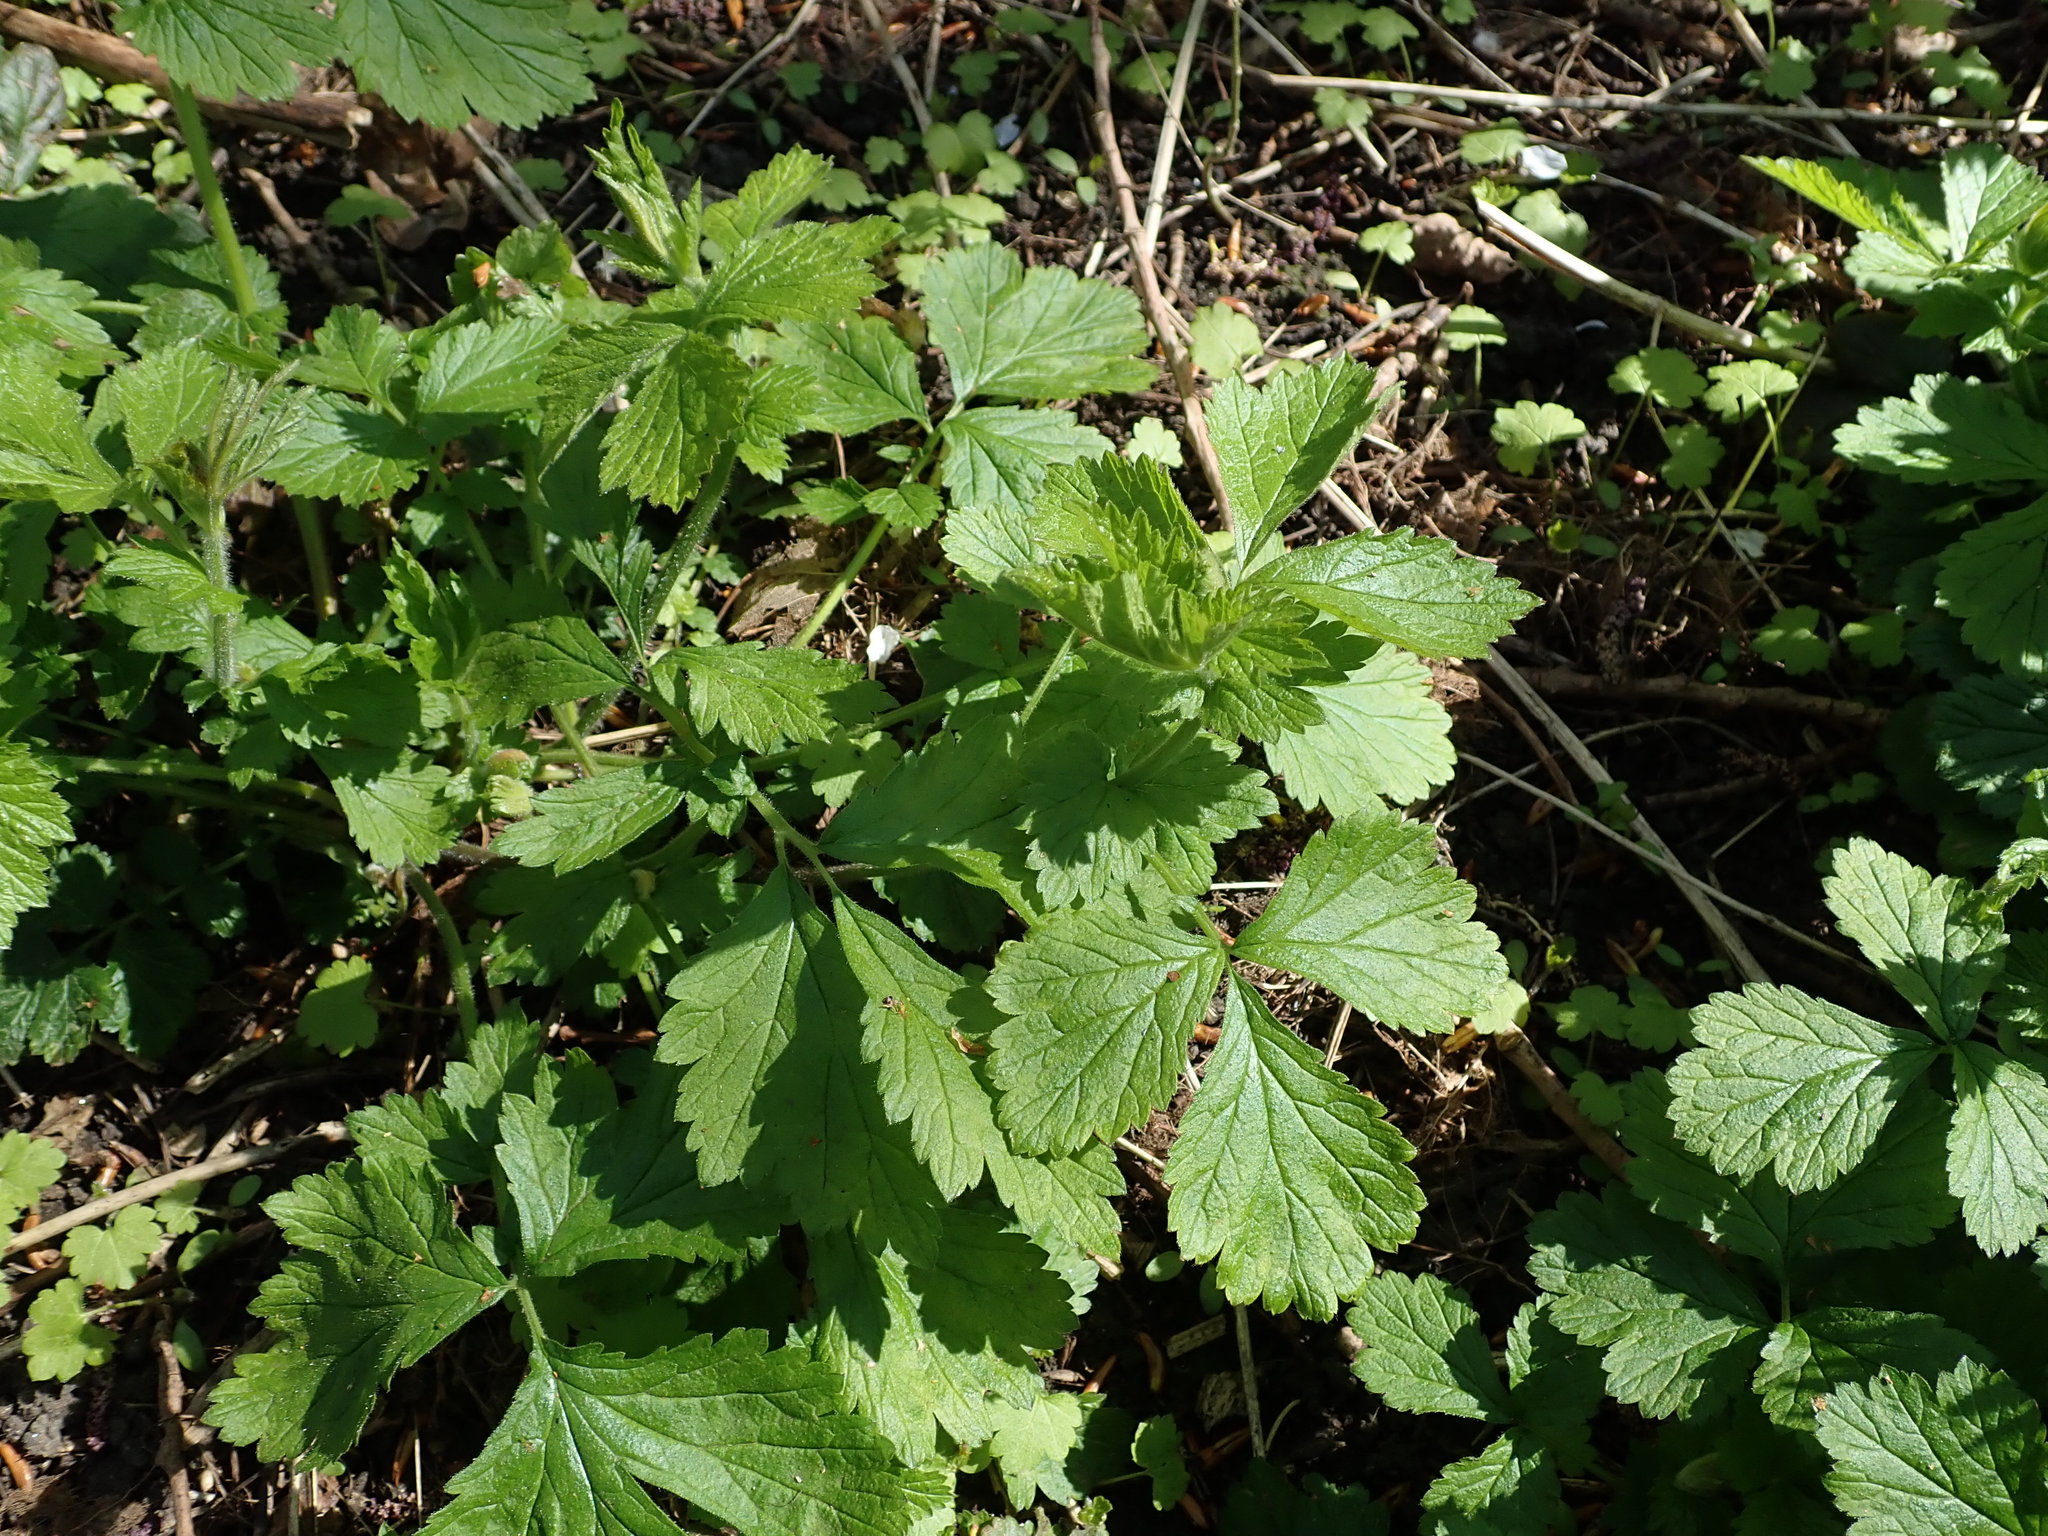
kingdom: Plantae
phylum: Tracheophyta
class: Magnoliopsida
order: Rosales
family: Rosaceae
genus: Geum
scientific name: Geum urbanum
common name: Wood avens
